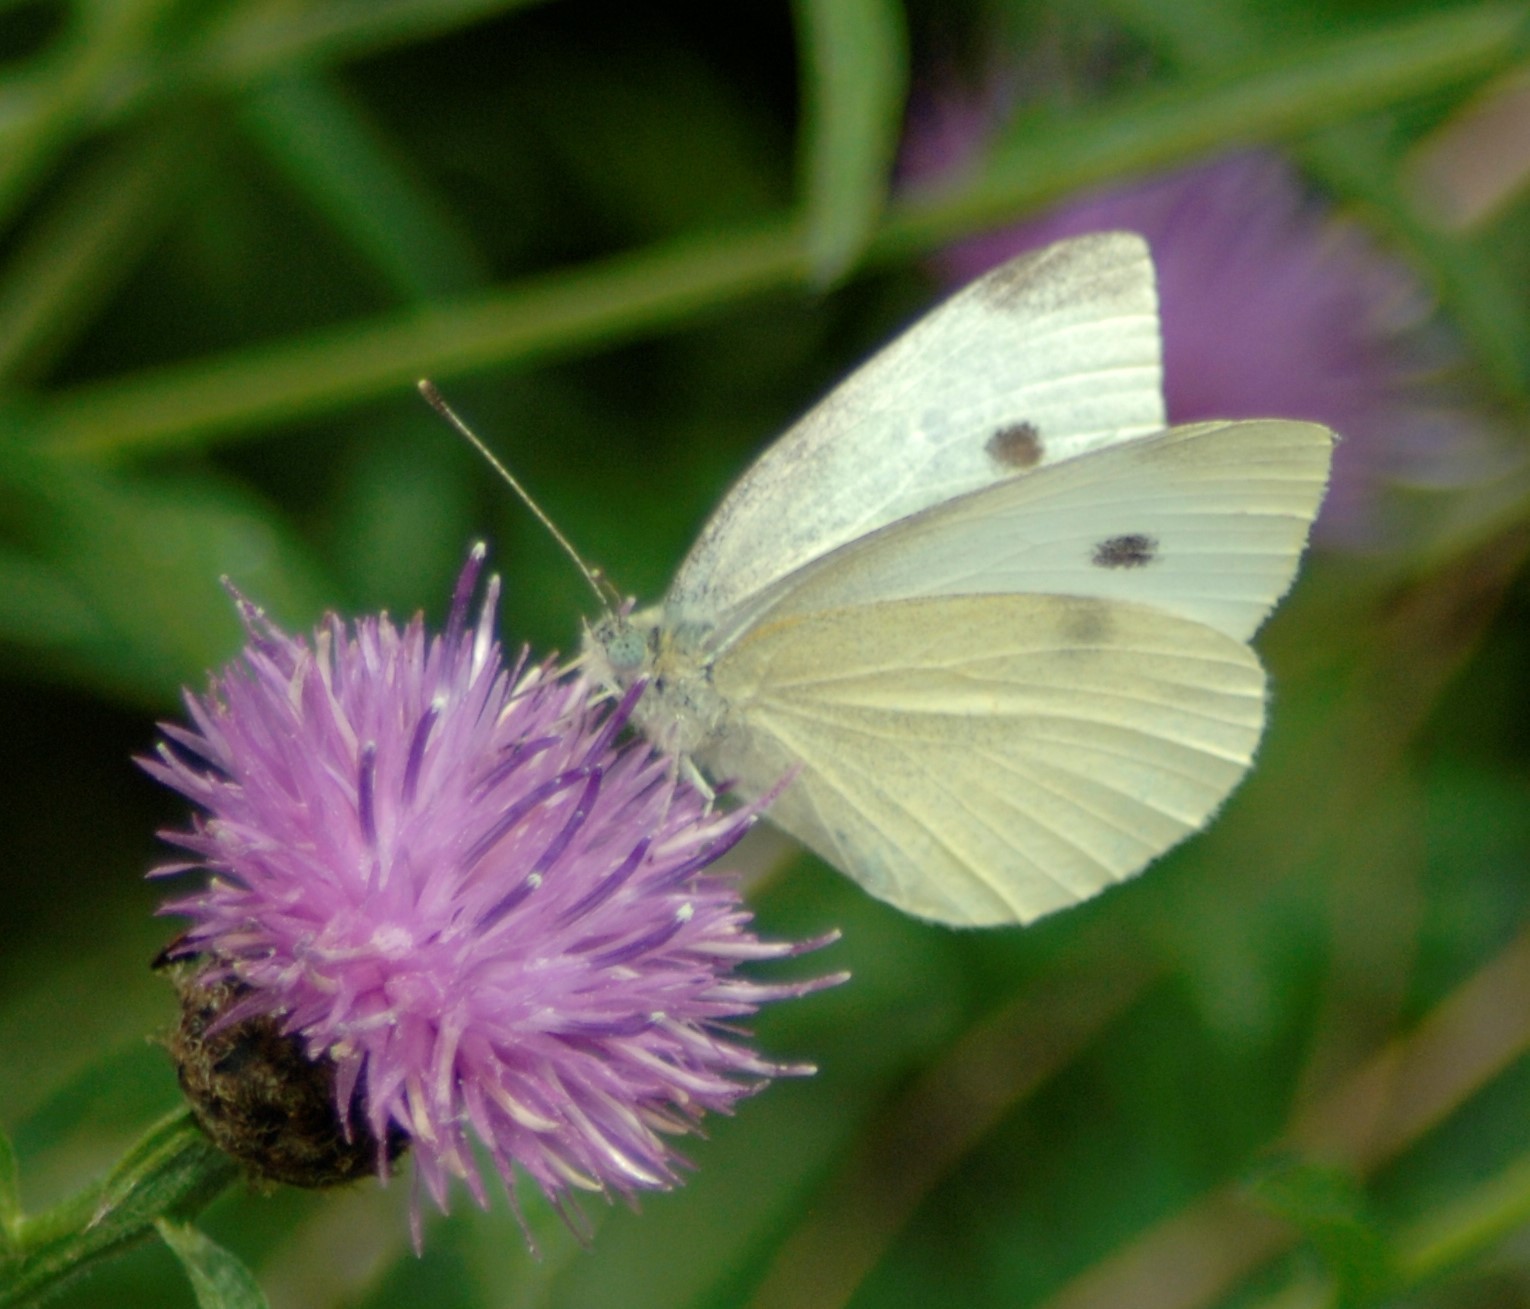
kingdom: Animalia
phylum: Arthropoda
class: Insecta
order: Lepidoptera
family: Pieridae
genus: Pieris
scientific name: Pieris rapae
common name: Small white
